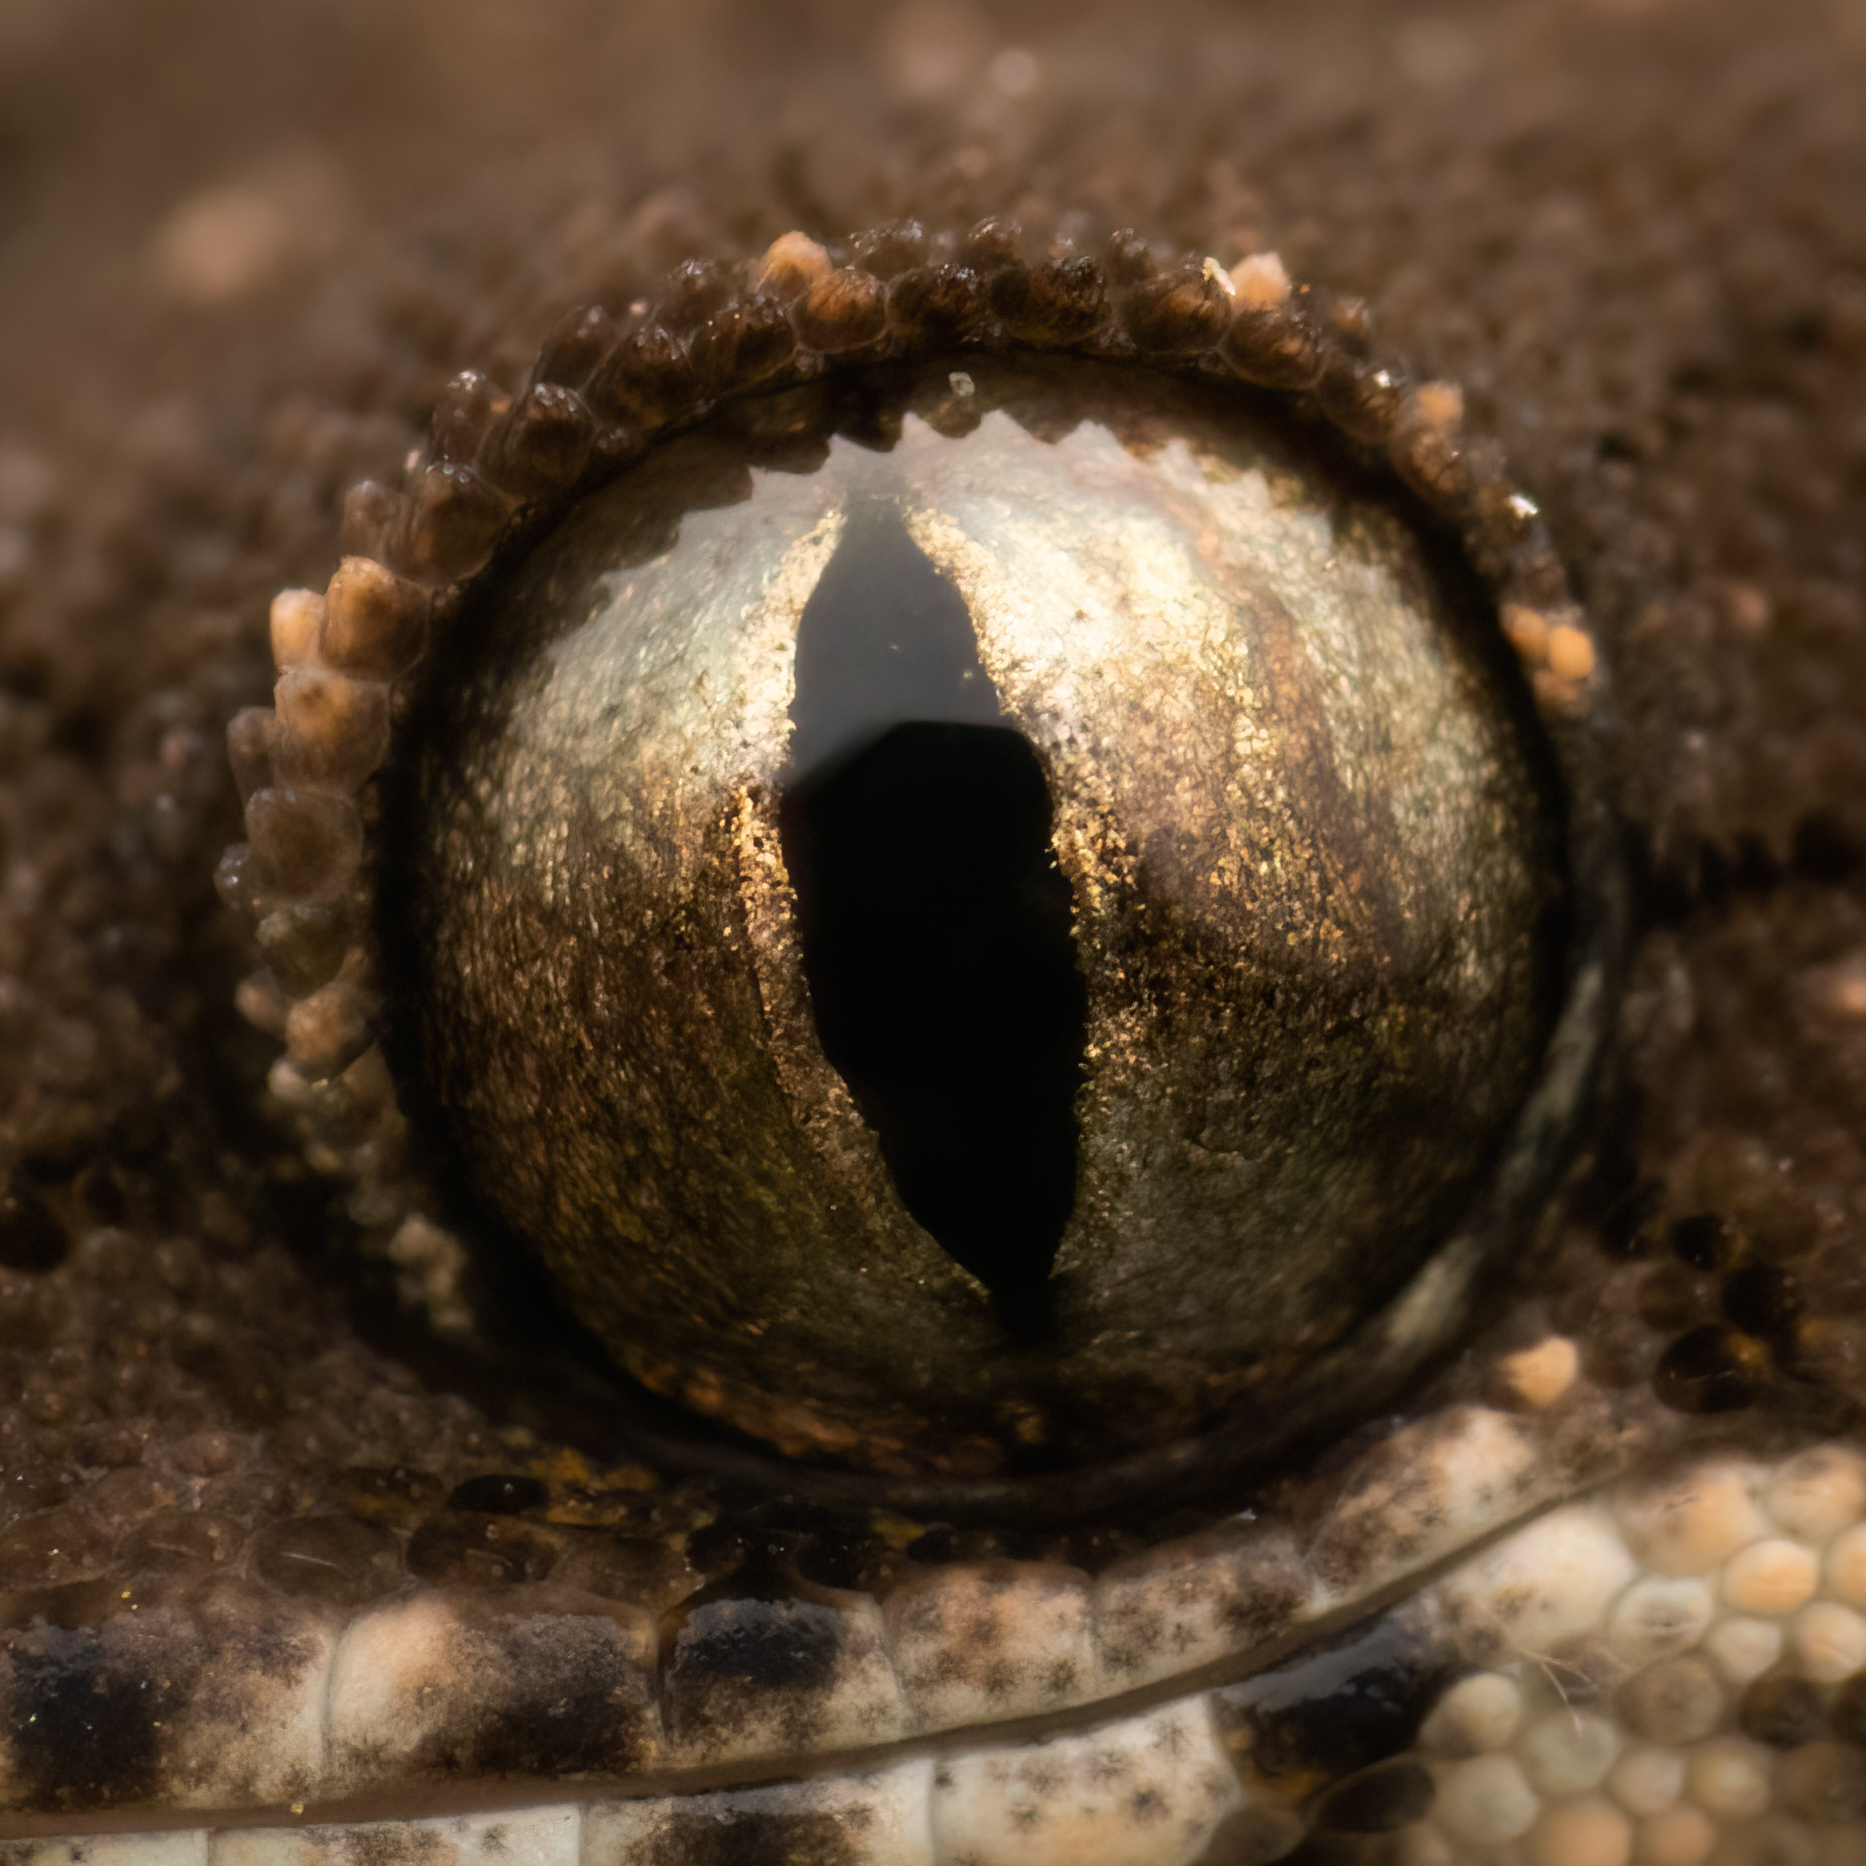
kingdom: Animalia
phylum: Chordata
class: Squamata
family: Gekkonidae
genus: Hemidactylus
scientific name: Hemidactylus reticulatus
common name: Reticulate leaf-toed gecko
